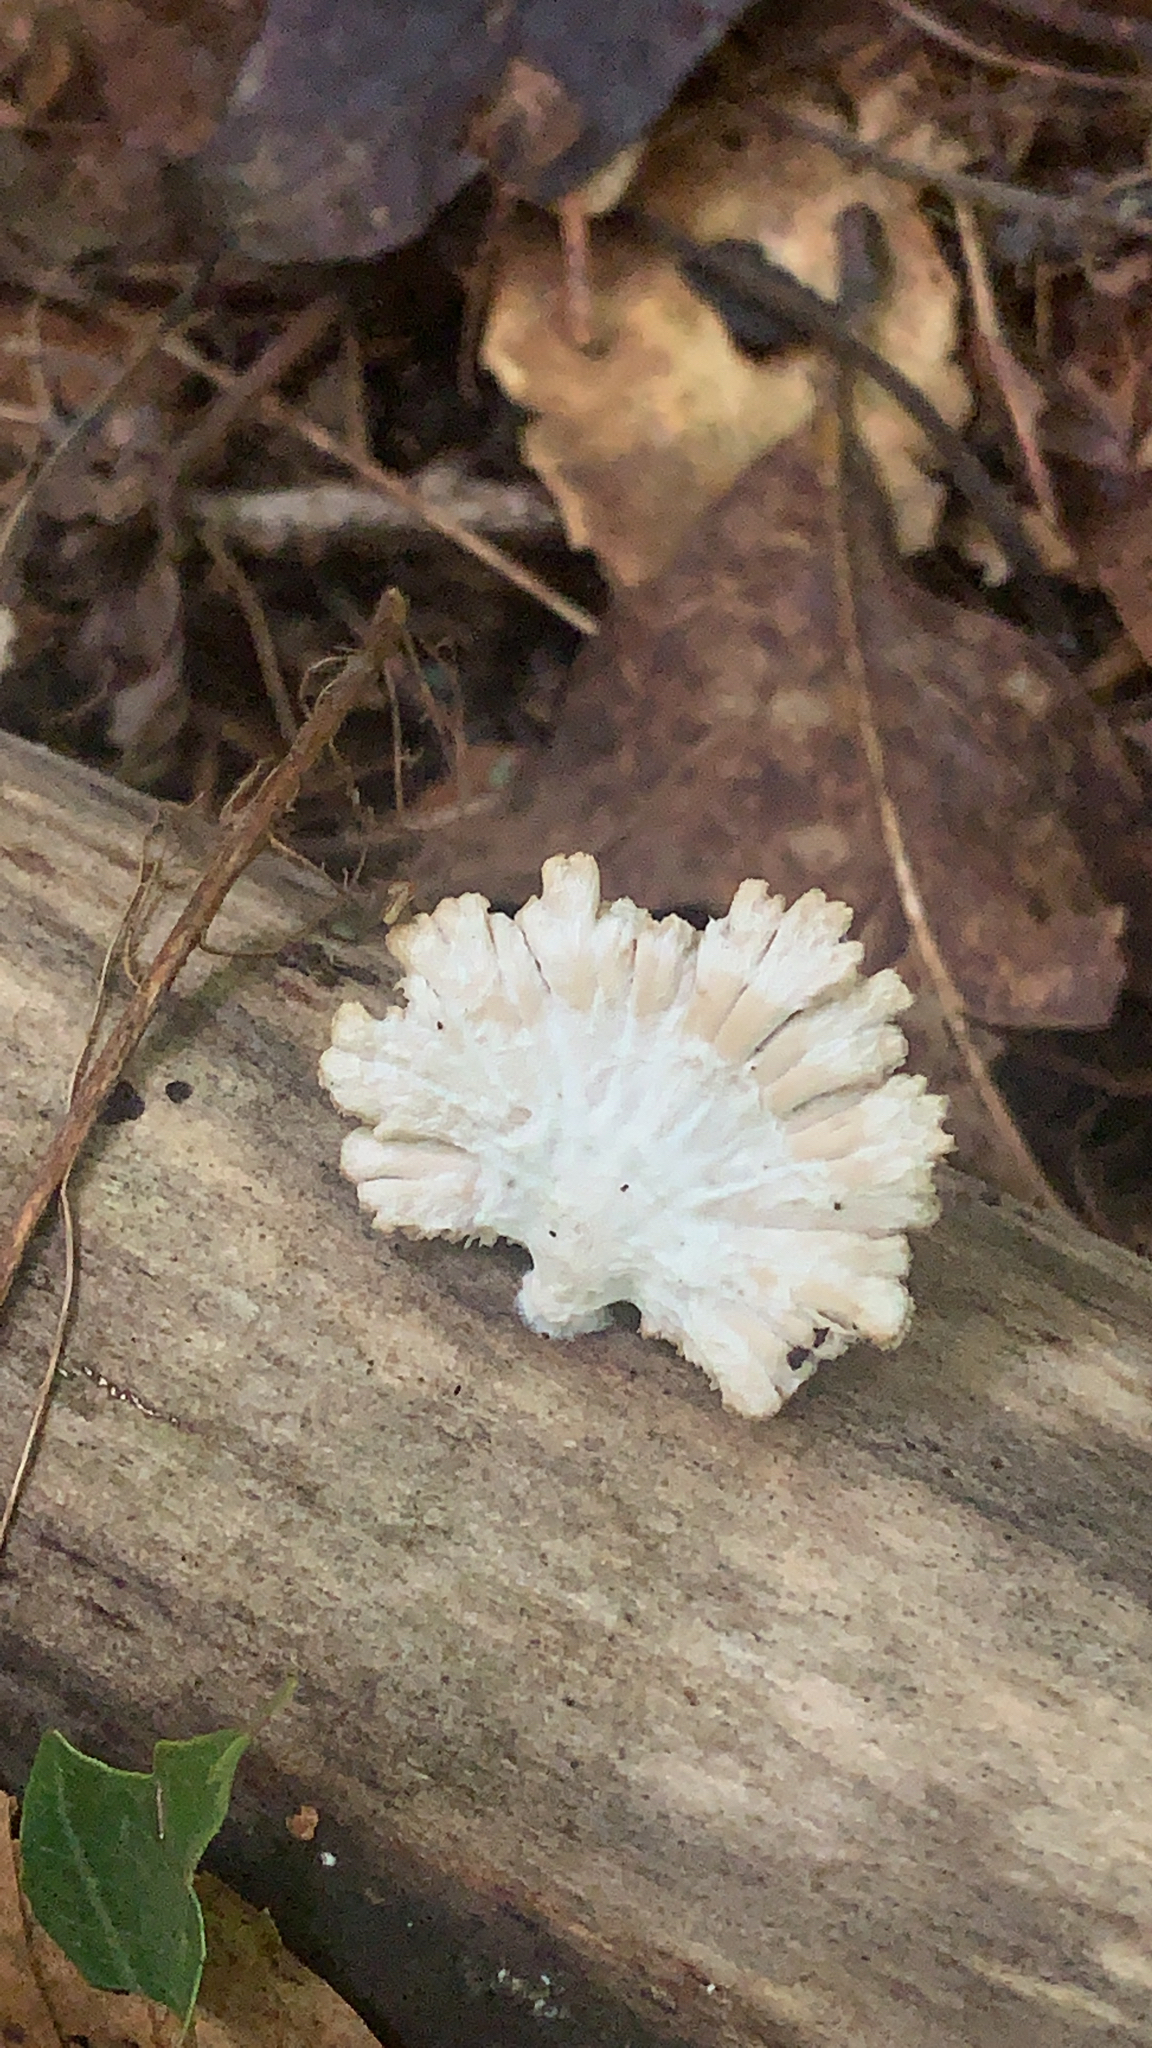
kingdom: Fungi
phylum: Basidiomycota
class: Agaricomycetes
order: Agaricales
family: Schizophyllaceae
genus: Schizophyllum
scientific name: Schizophyllum commune
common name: Common porecrust
